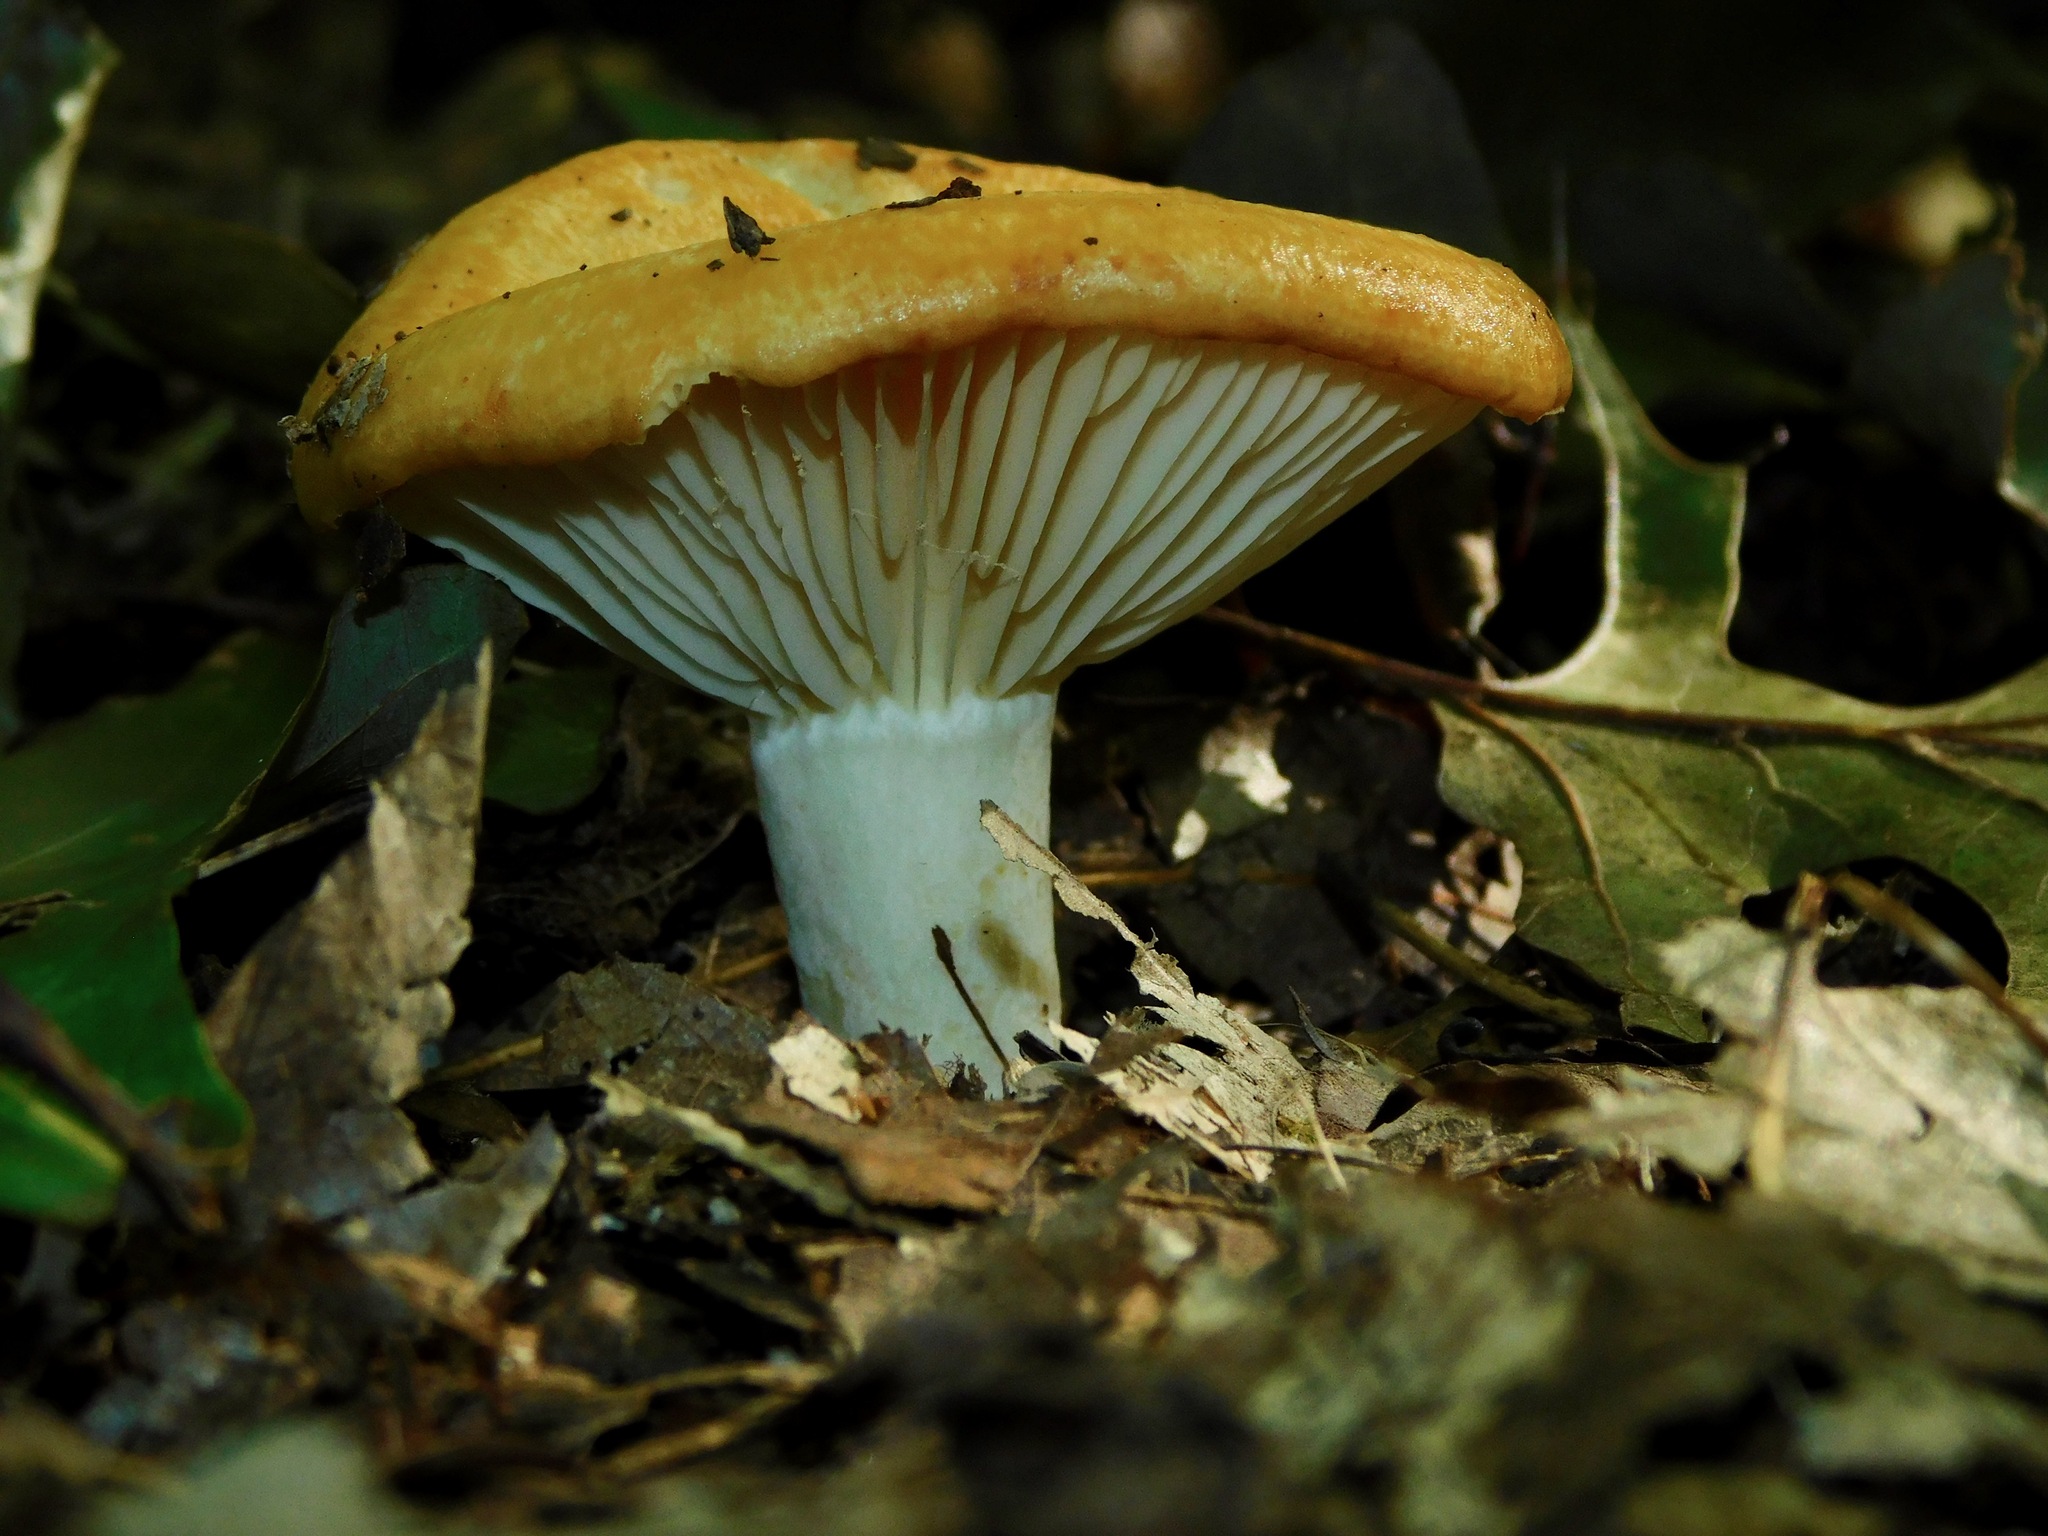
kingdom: Fungi
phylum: Basidiomycota
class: Agaricomycetes
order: Russulales
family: Russulaceae
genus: Lactarius
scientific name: Lactarius croceus
